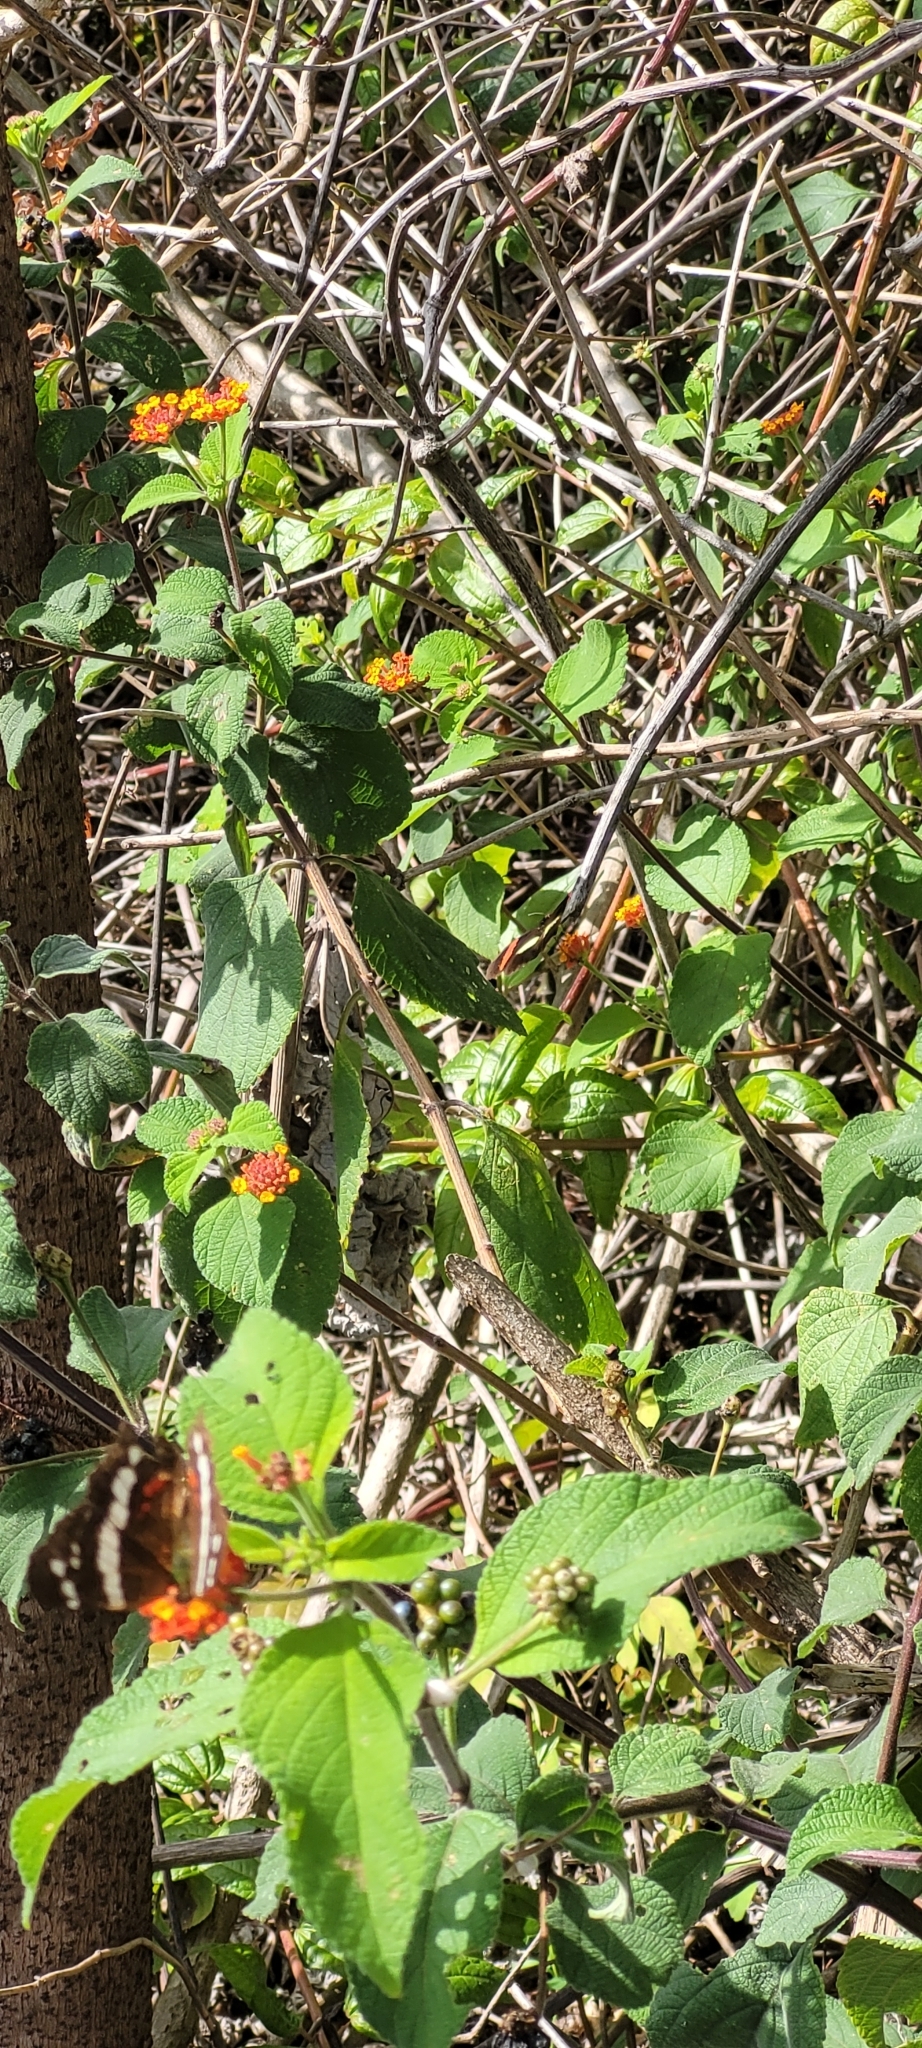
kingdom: Animalia
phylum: Arthropoda
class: Insecta
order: Lepidoptera
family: Nymphalidae
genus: Anartia
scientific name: Anartia fatima
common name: Banded peacock
